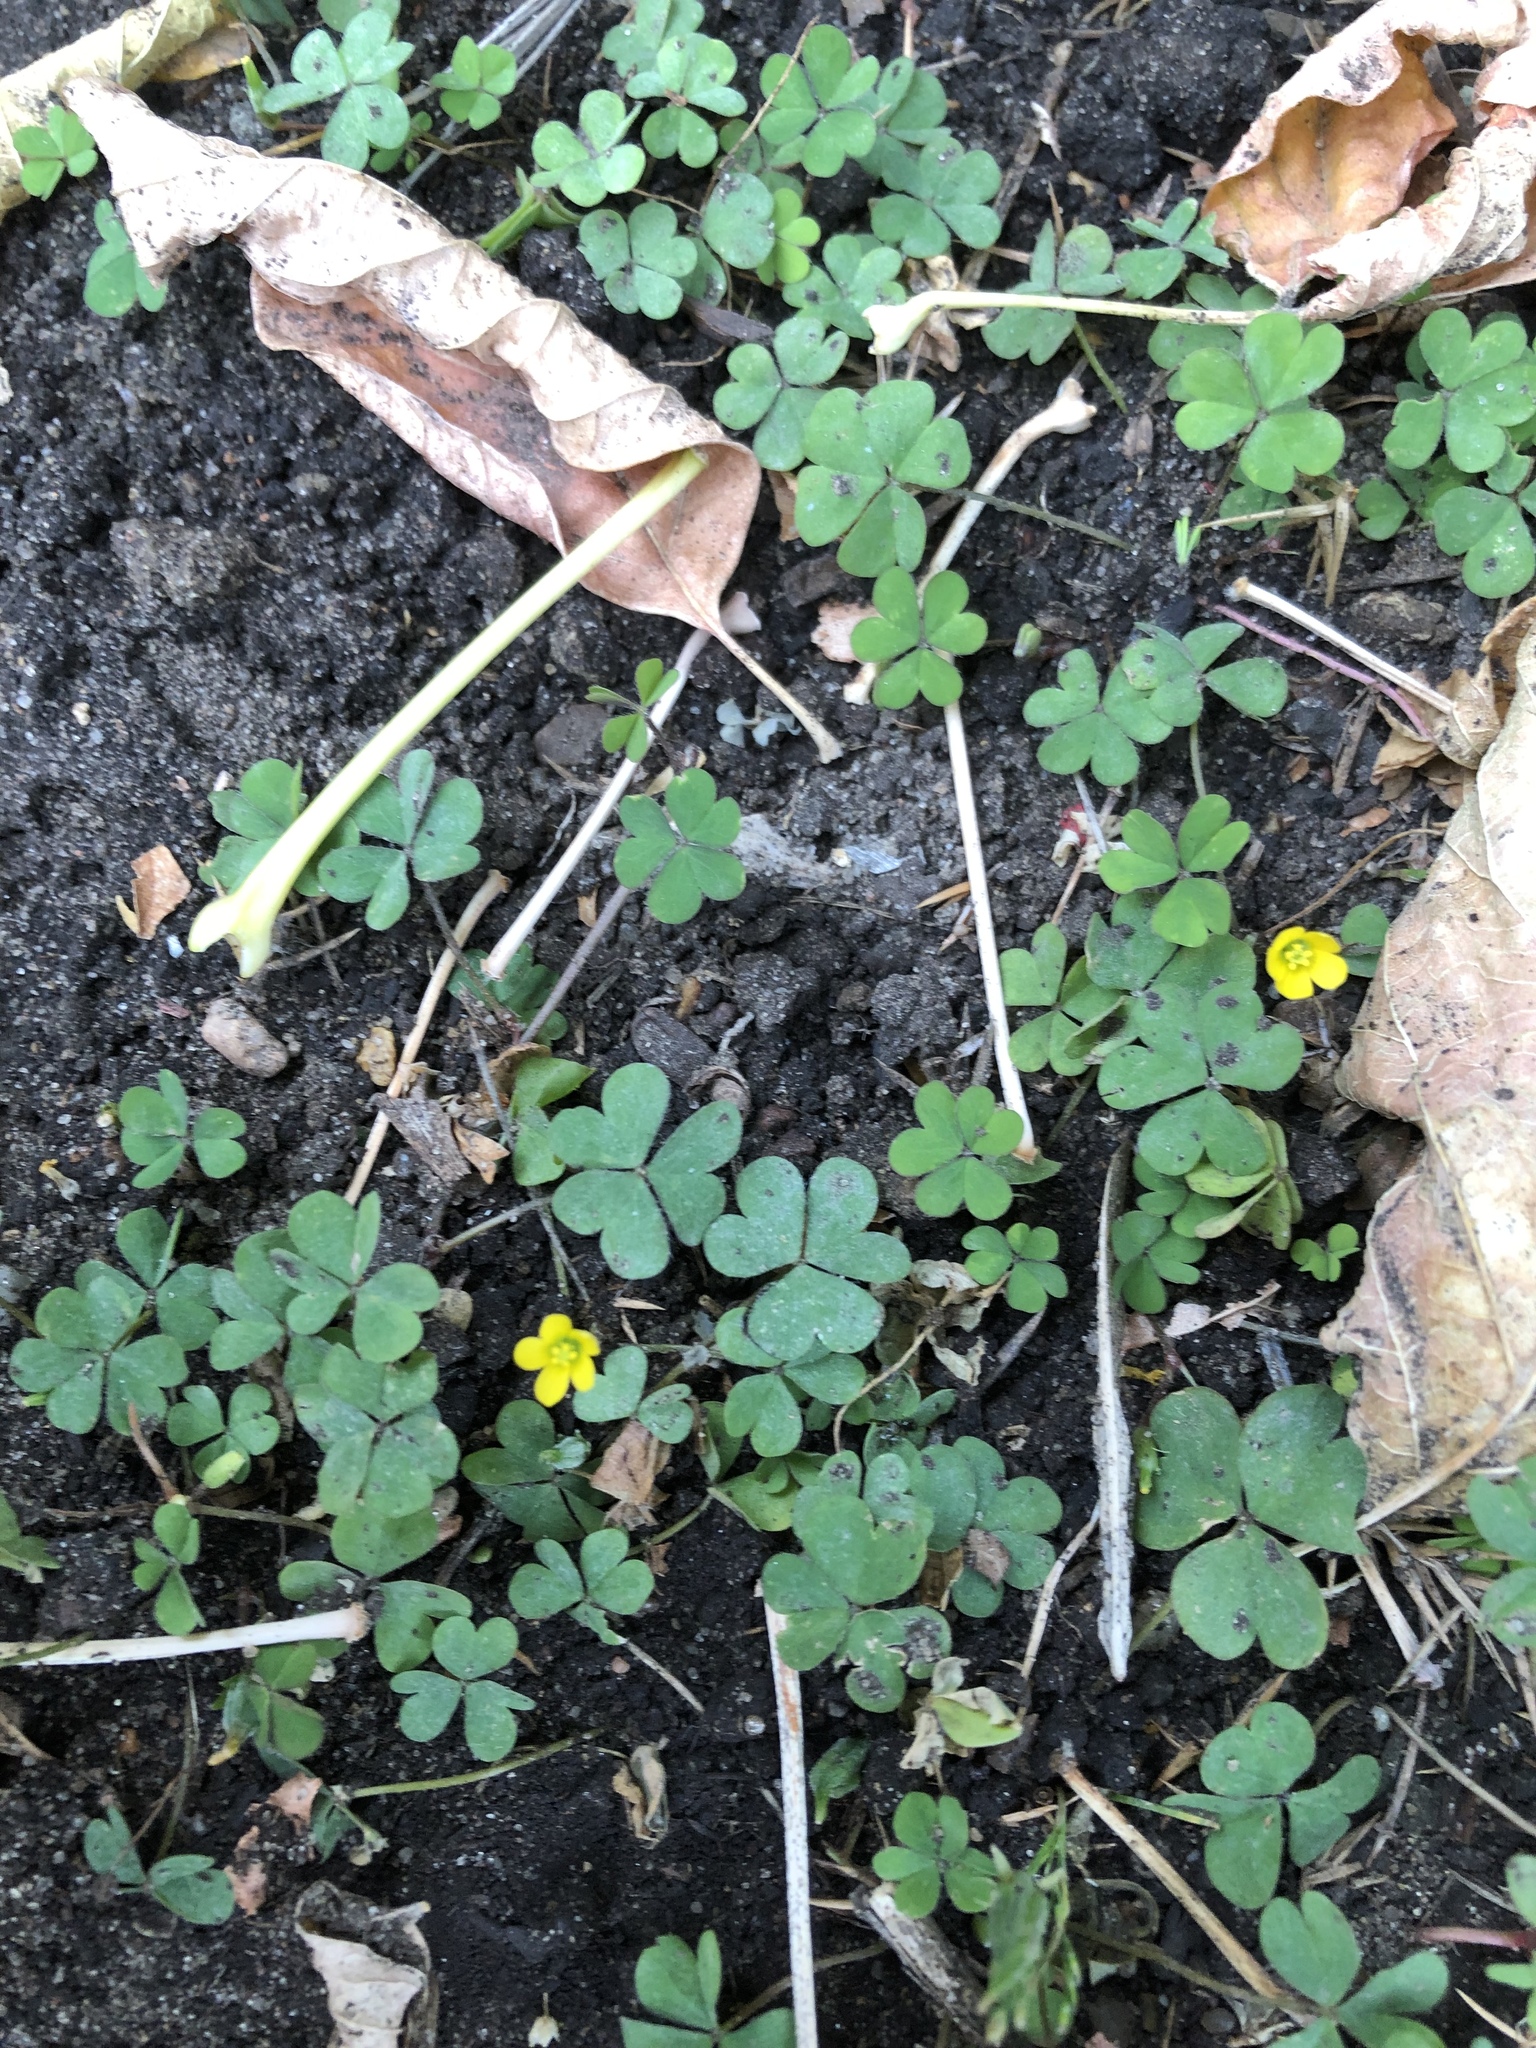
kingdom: Plantae
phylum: Tracheophyta
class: Magnoliopsida
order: Oxalidales
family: Oxalidaceae
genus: Oxalis
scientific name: Oxalis stricta
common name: Upright yellow-sorrel
